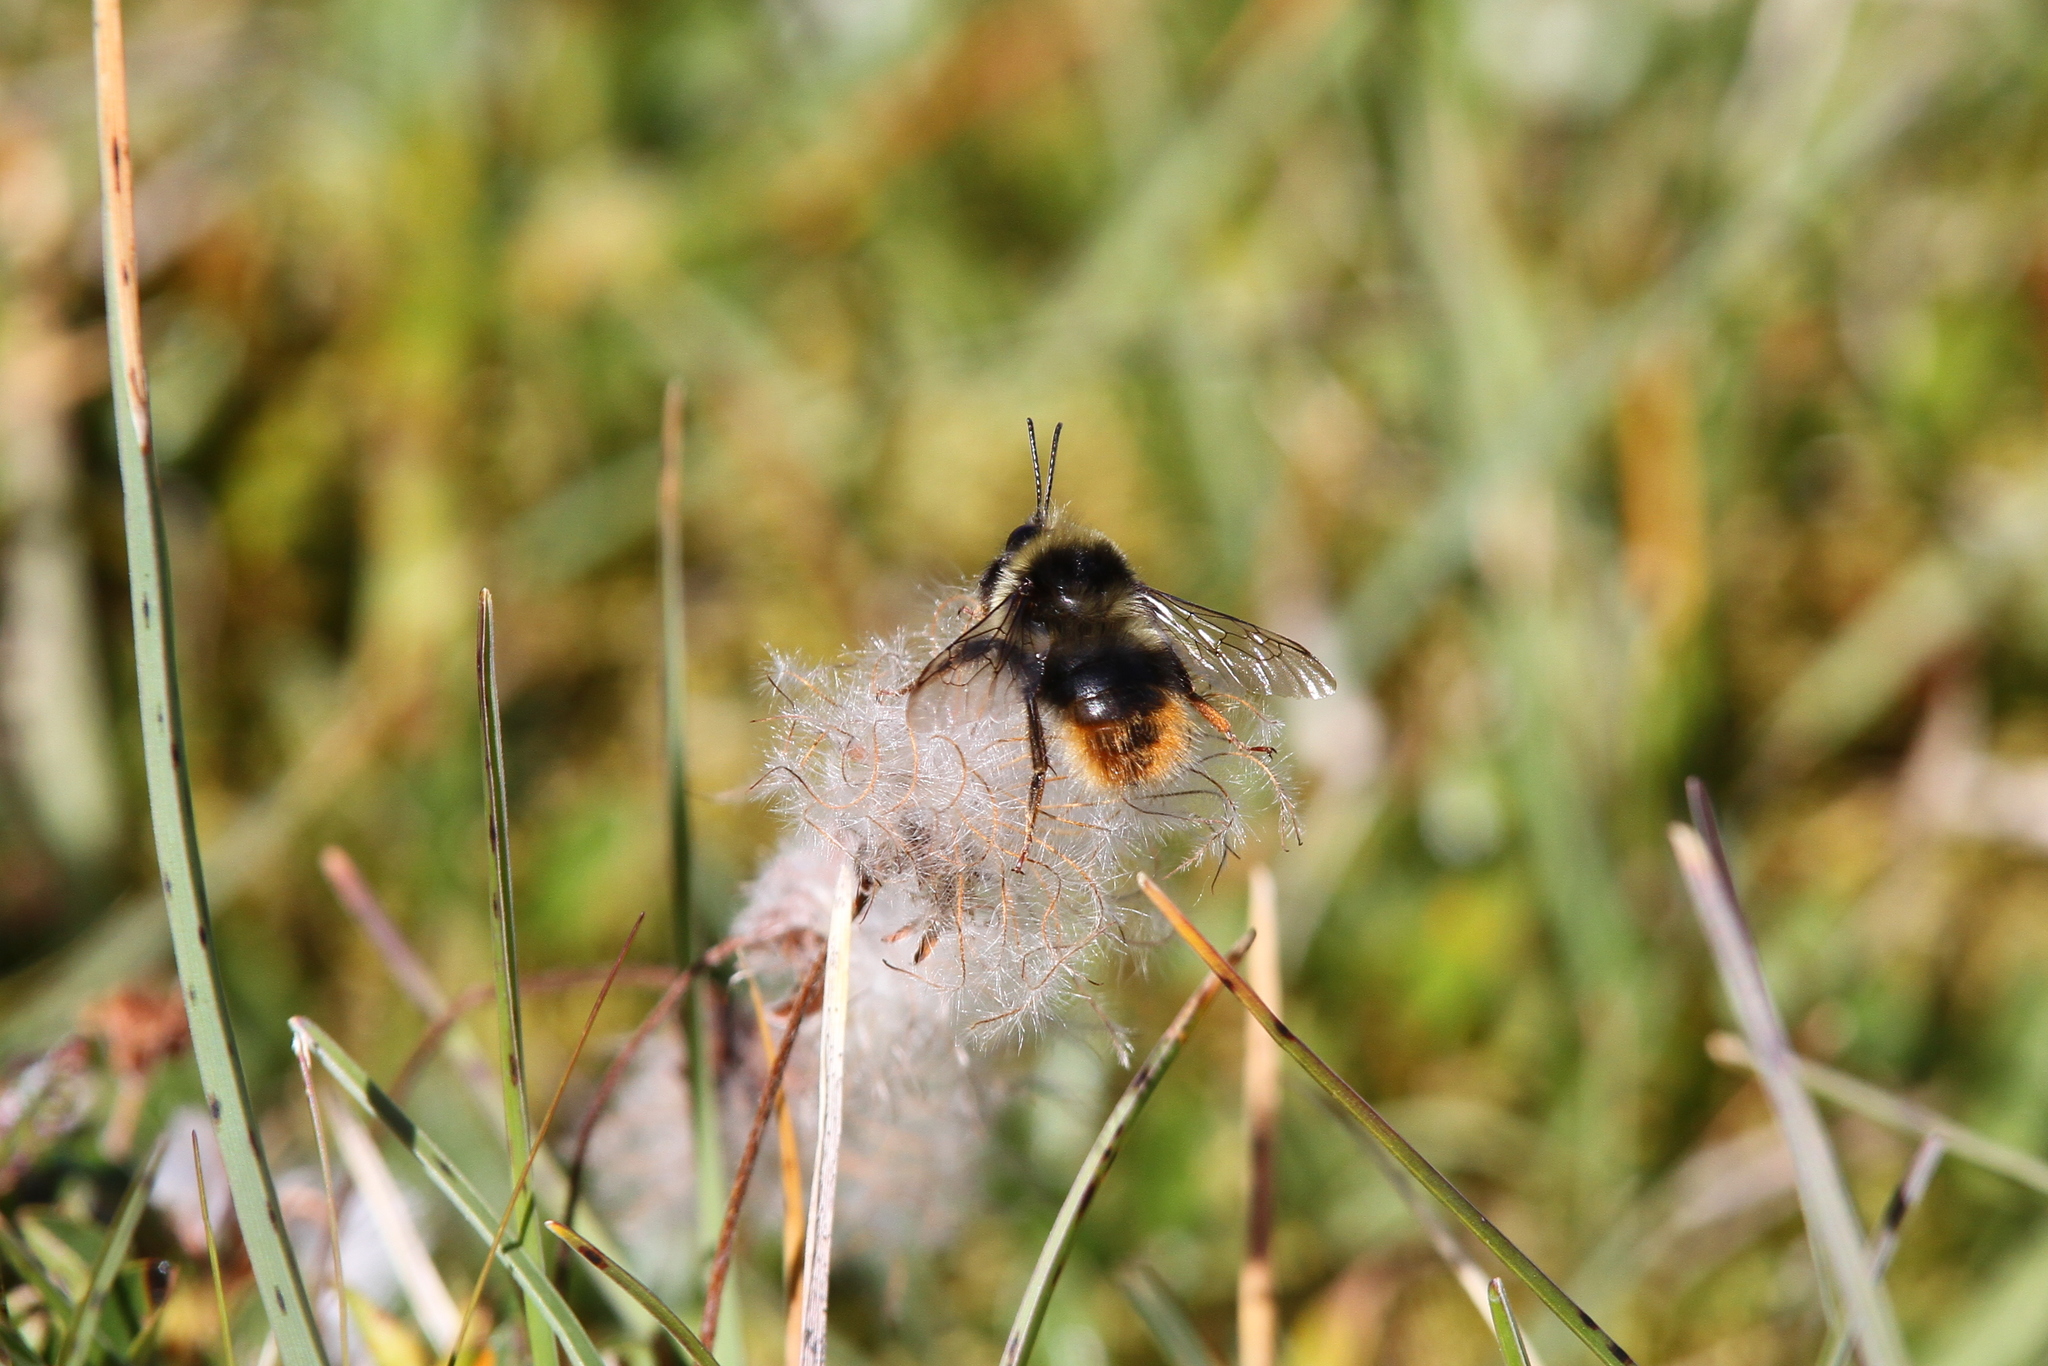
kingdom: Animalia
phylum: Arthropoda
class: Insecta
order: Hymenoptera
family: Apidae
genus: Bombus
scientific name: Bombus mendax
